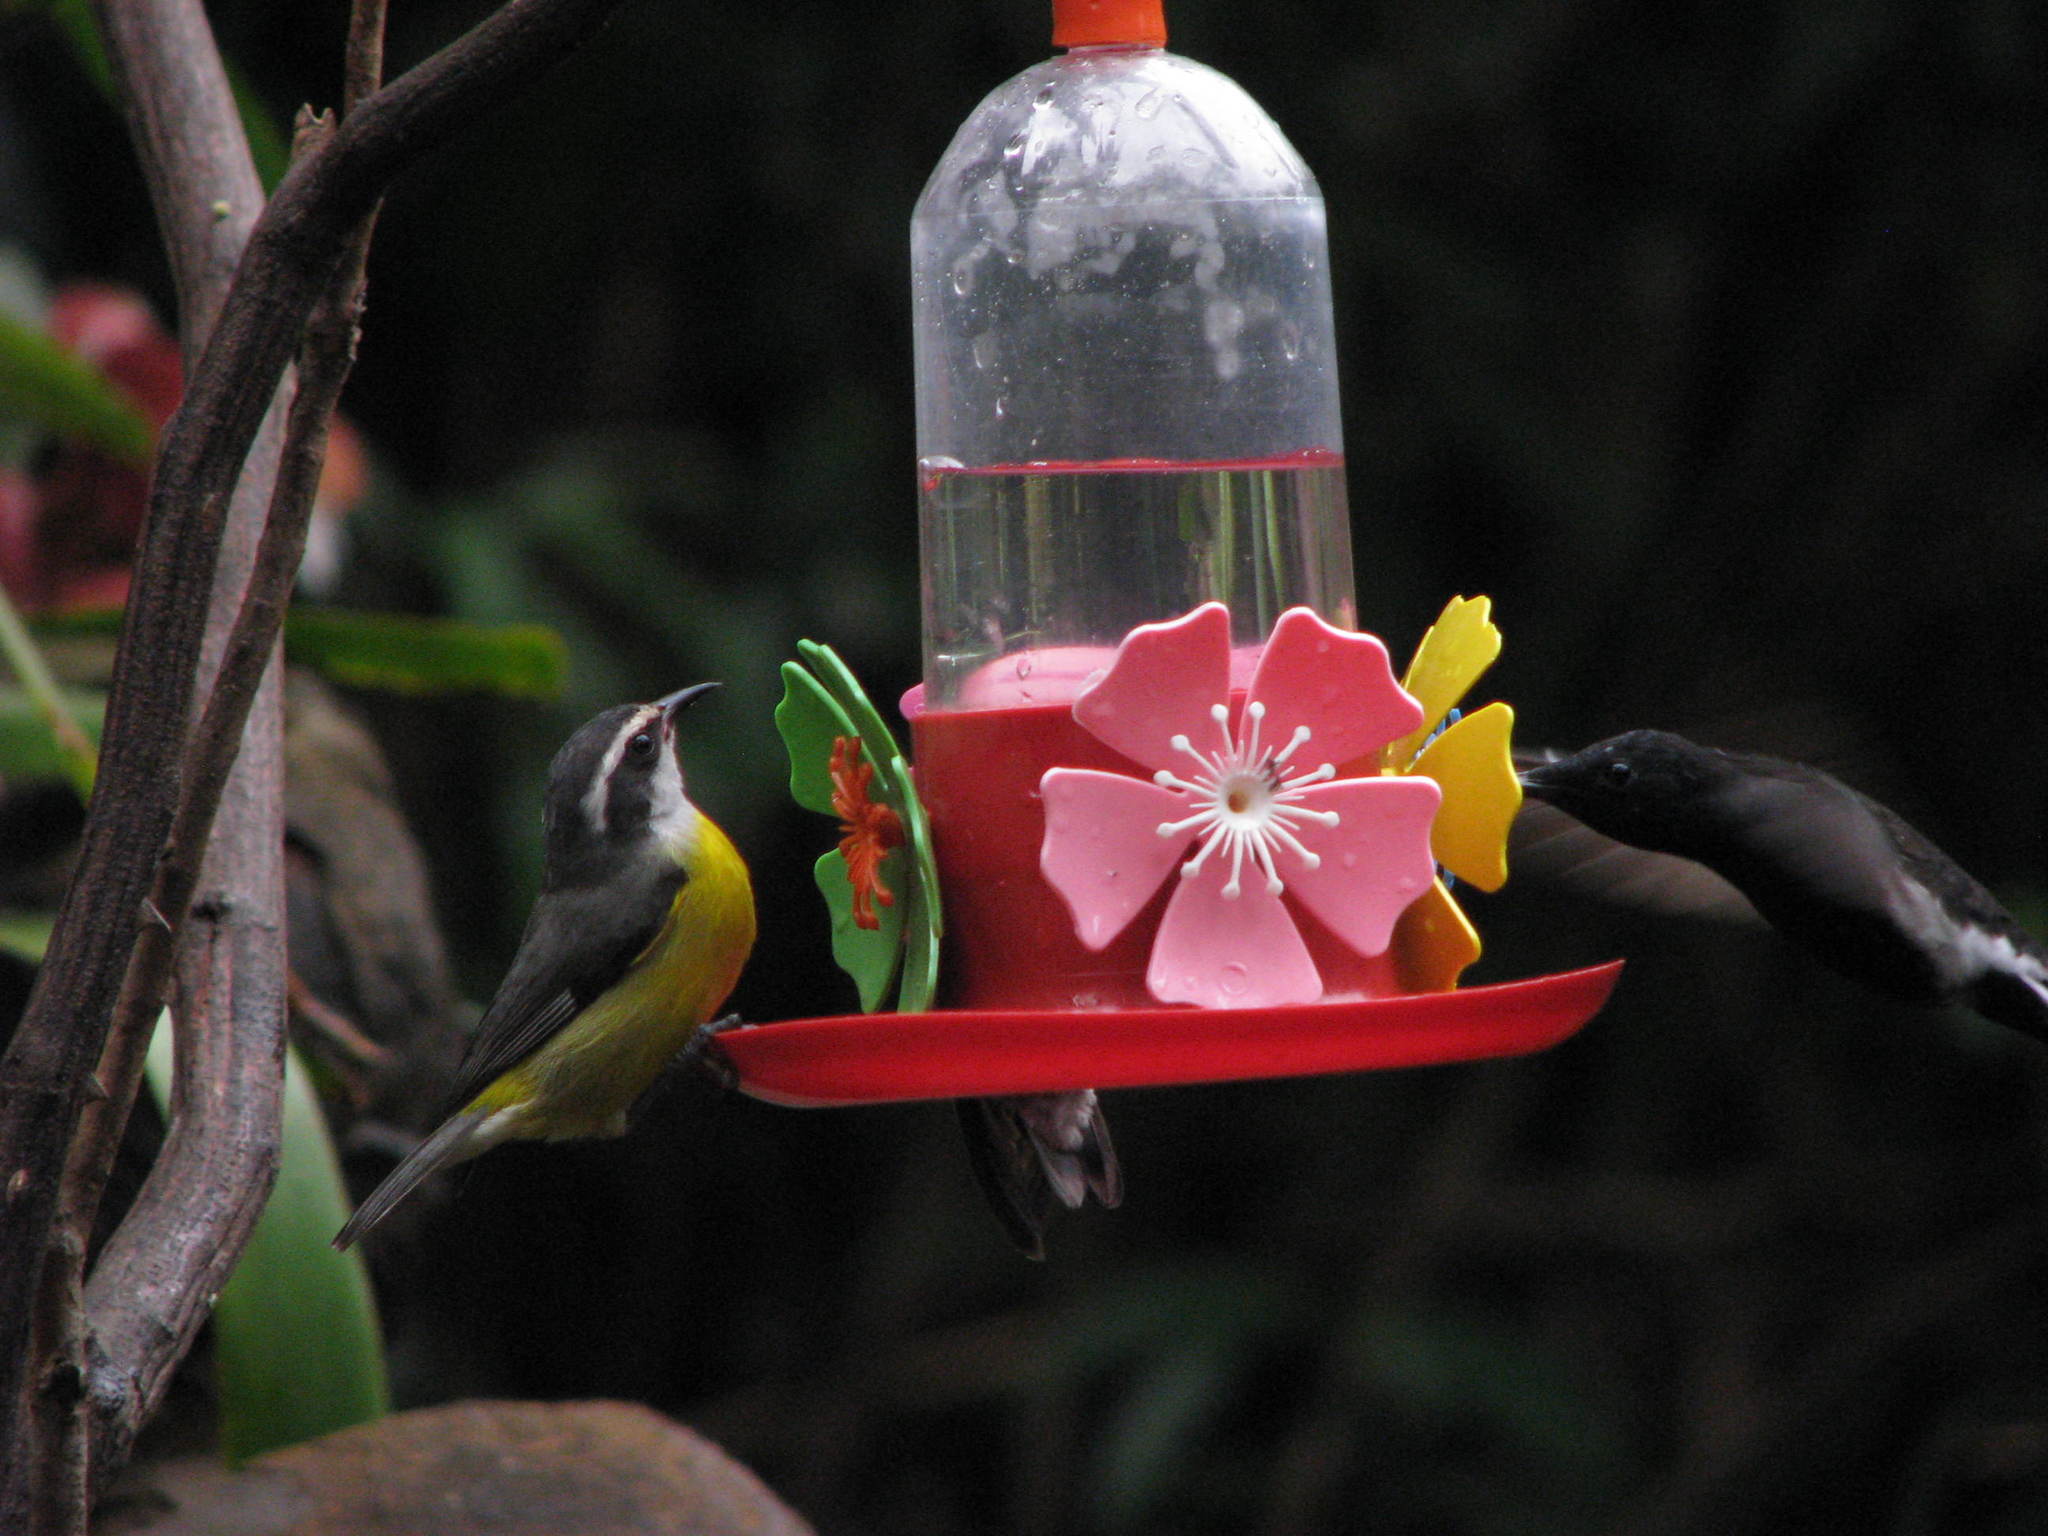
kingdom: Animalia
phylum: Chordata
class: Aves
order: Apodiformes
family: Trochilidae
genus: Florisuga
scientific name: Florisuga fusca
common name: Black jacobin
